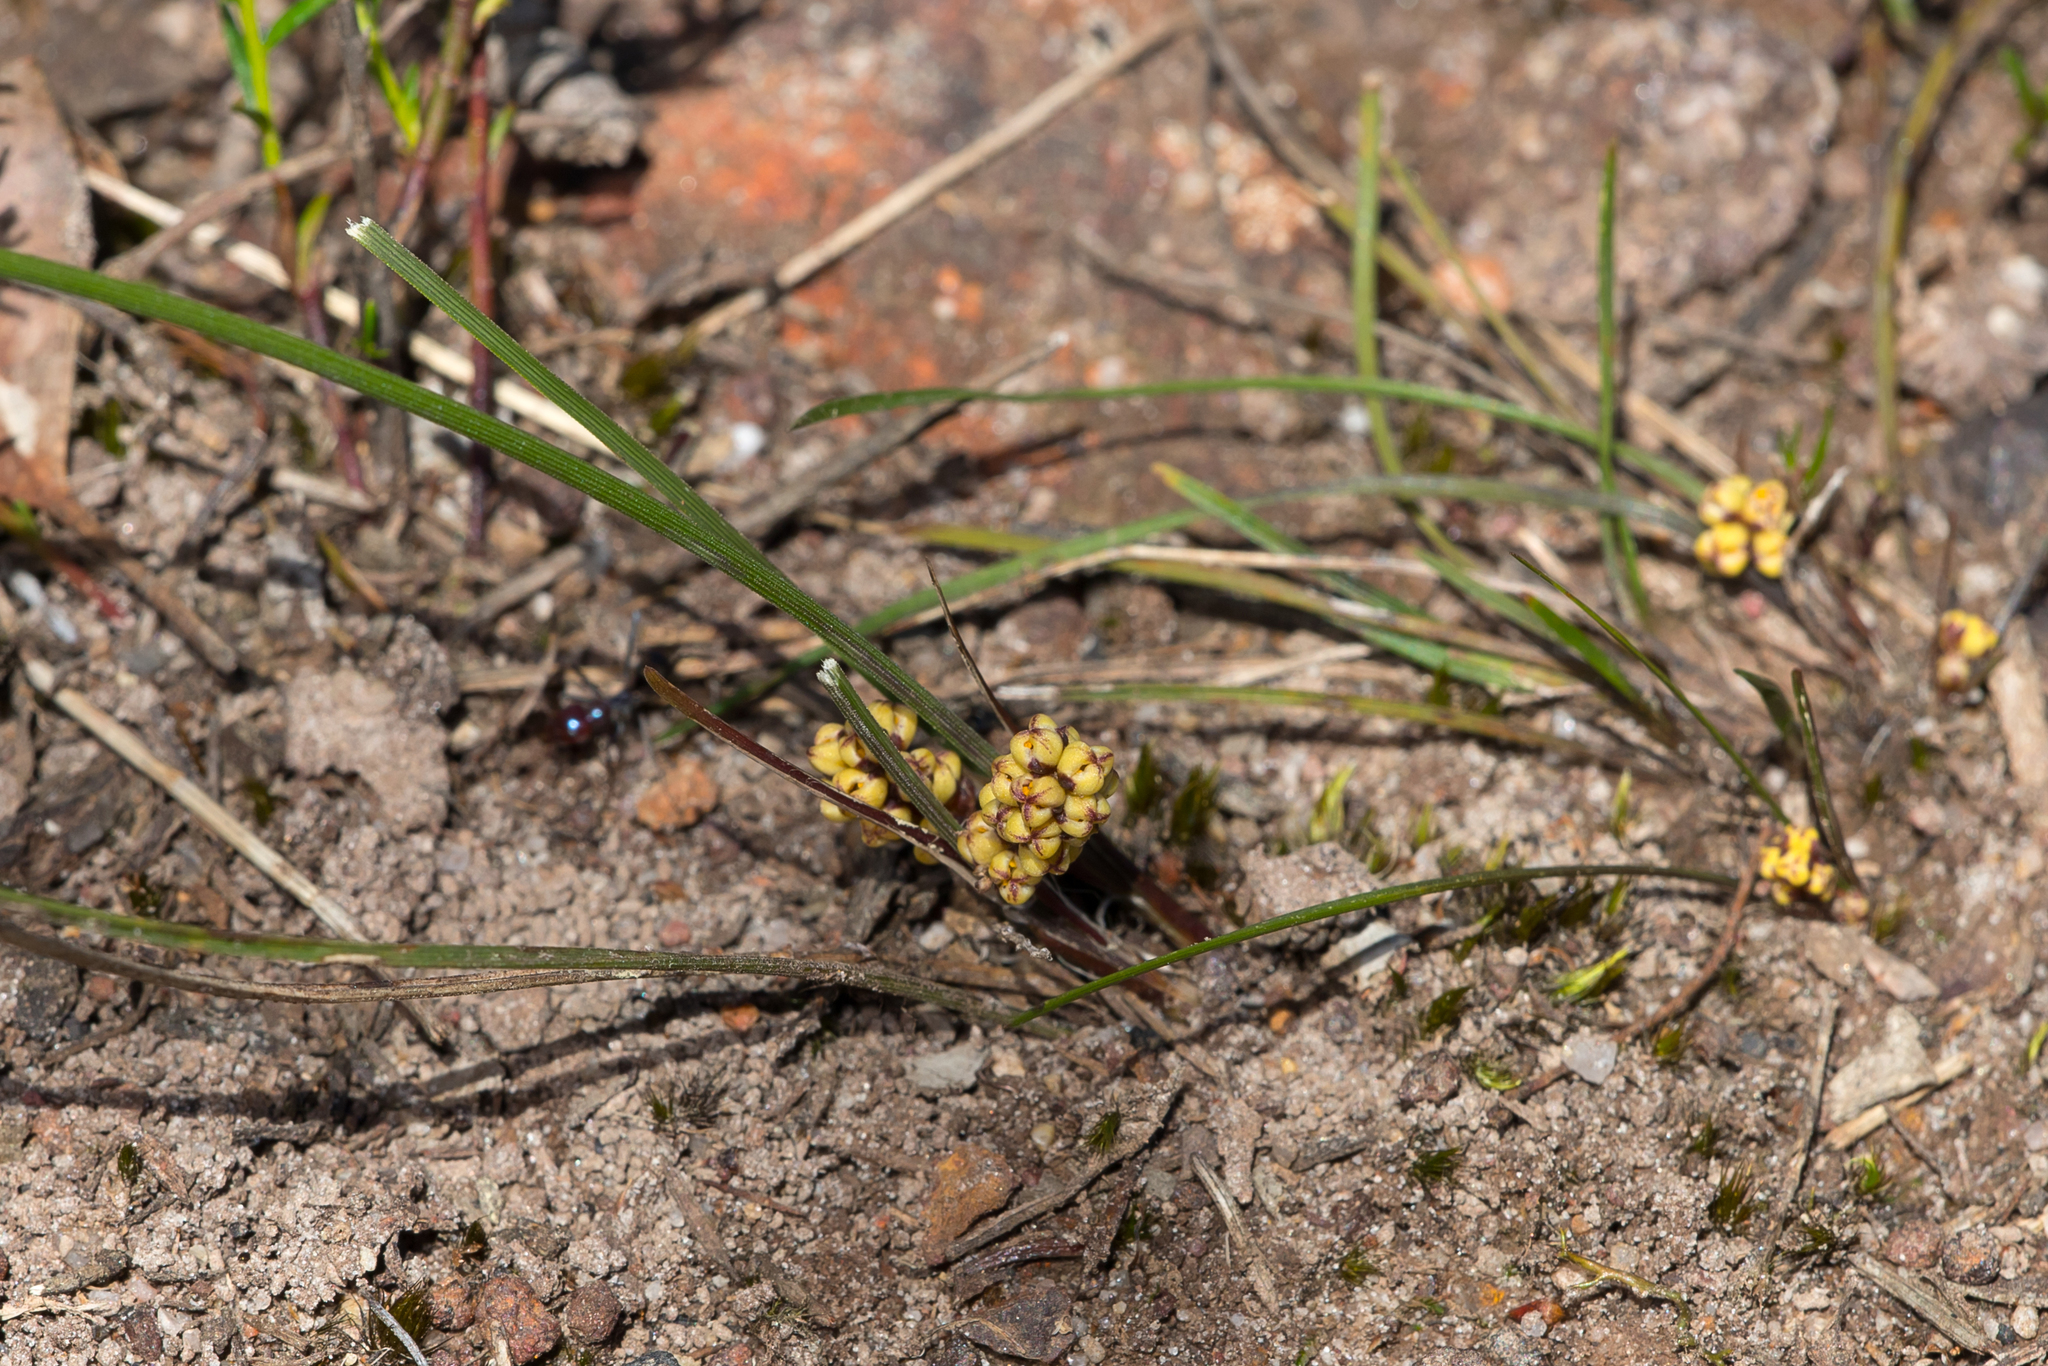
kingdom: Plantae
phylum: Tracheophyta
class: Liliopsida
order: Asparagales
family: Asparagaceae
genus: Lomandra
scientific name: Lomandra sororia
